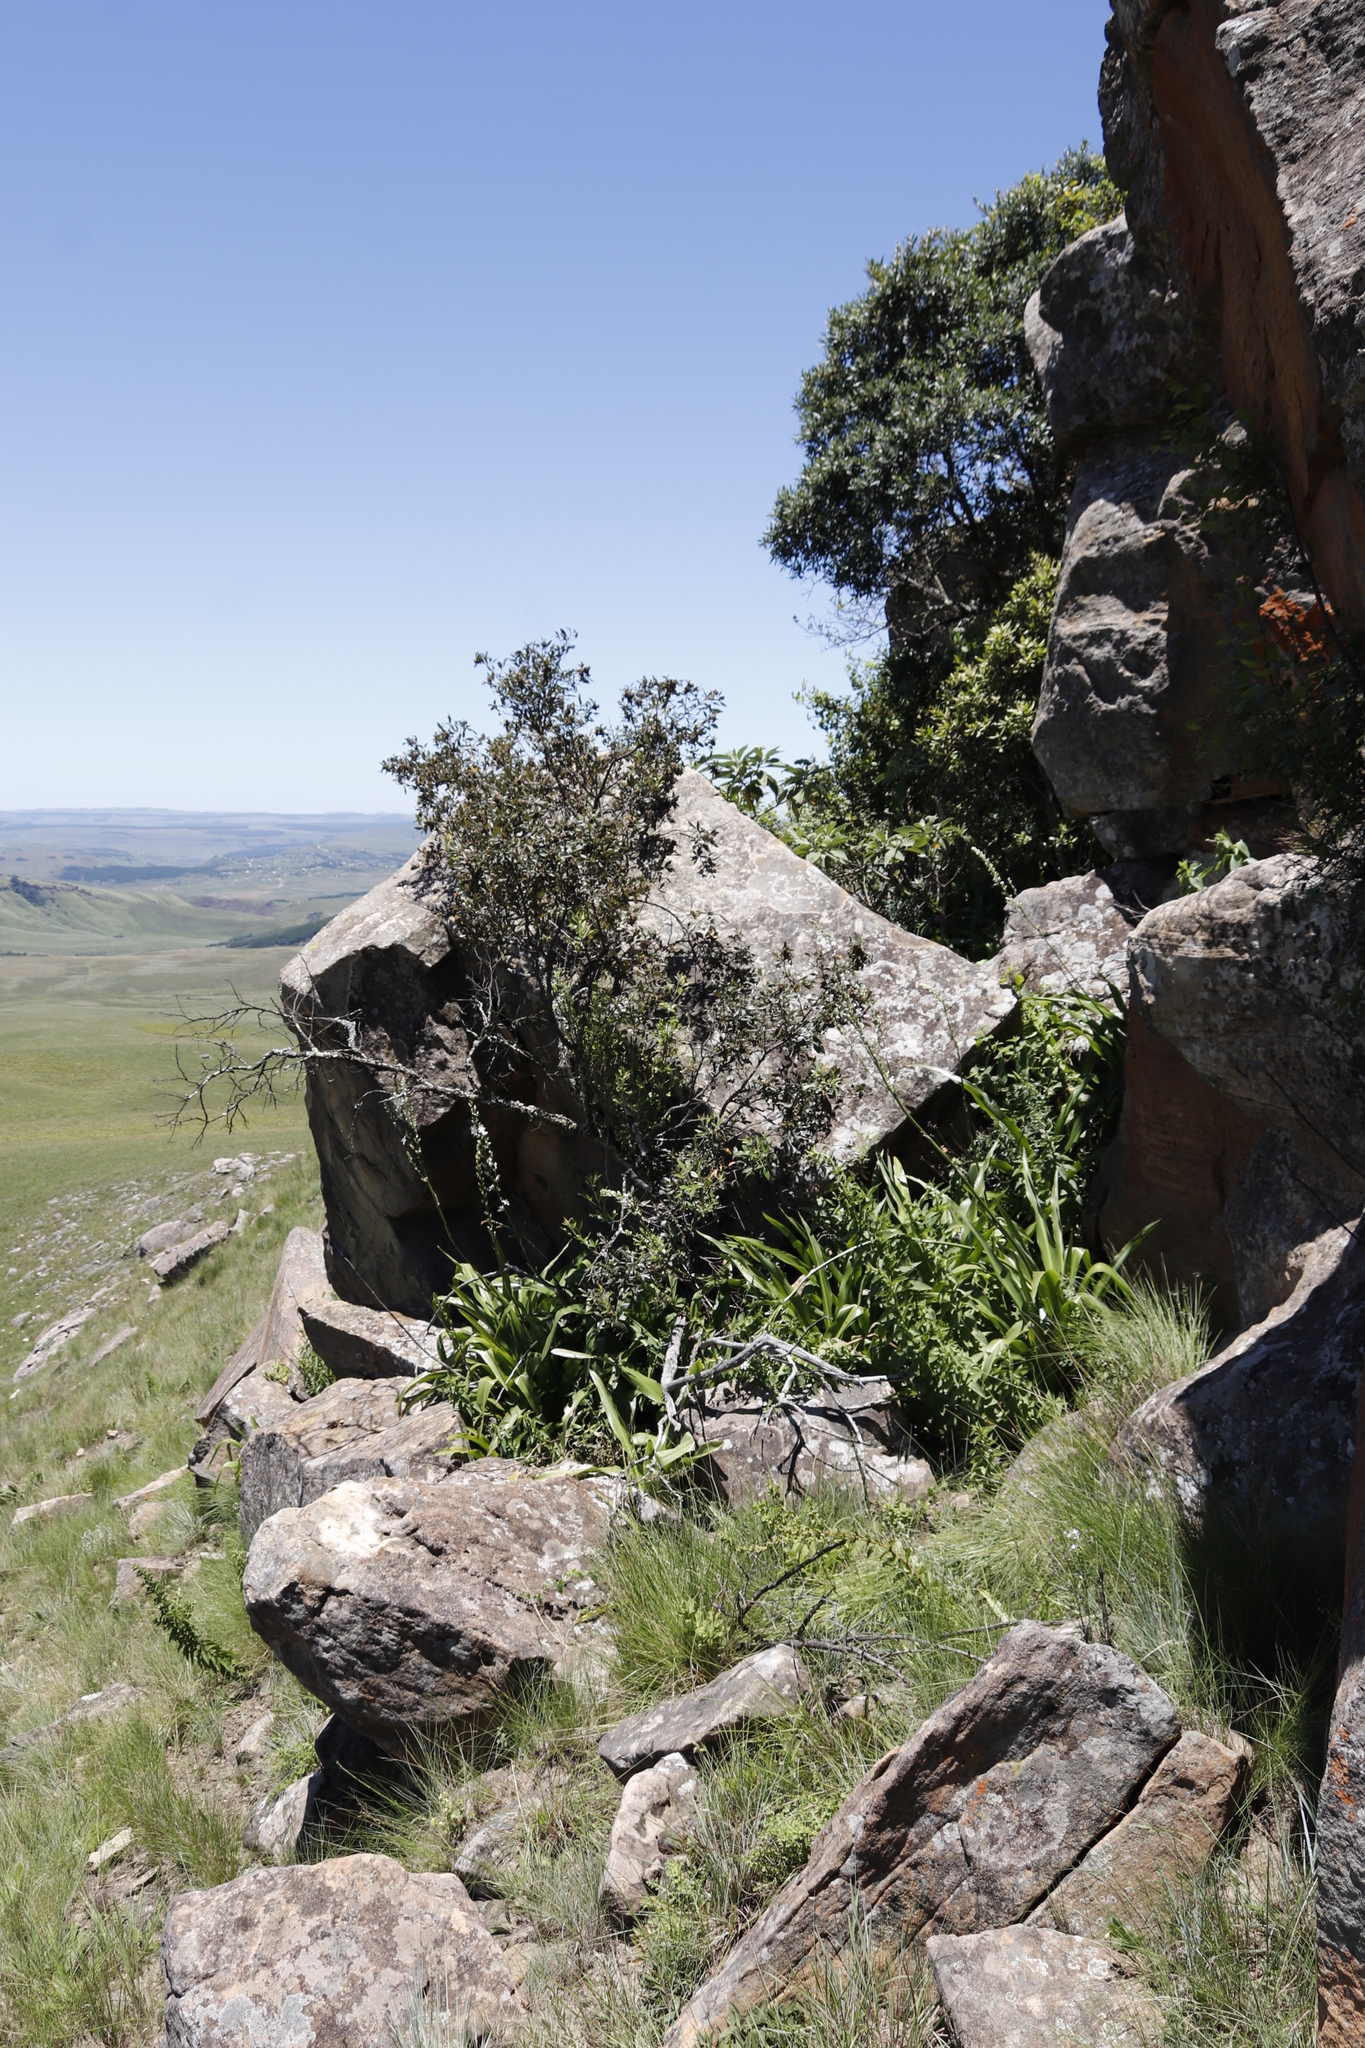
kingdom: Plantae
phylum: Tracheophyta
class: Magnoliopsida
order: Sapindales
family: Anacardiaceae
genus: Searsia
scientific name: Searsia tomentosa
